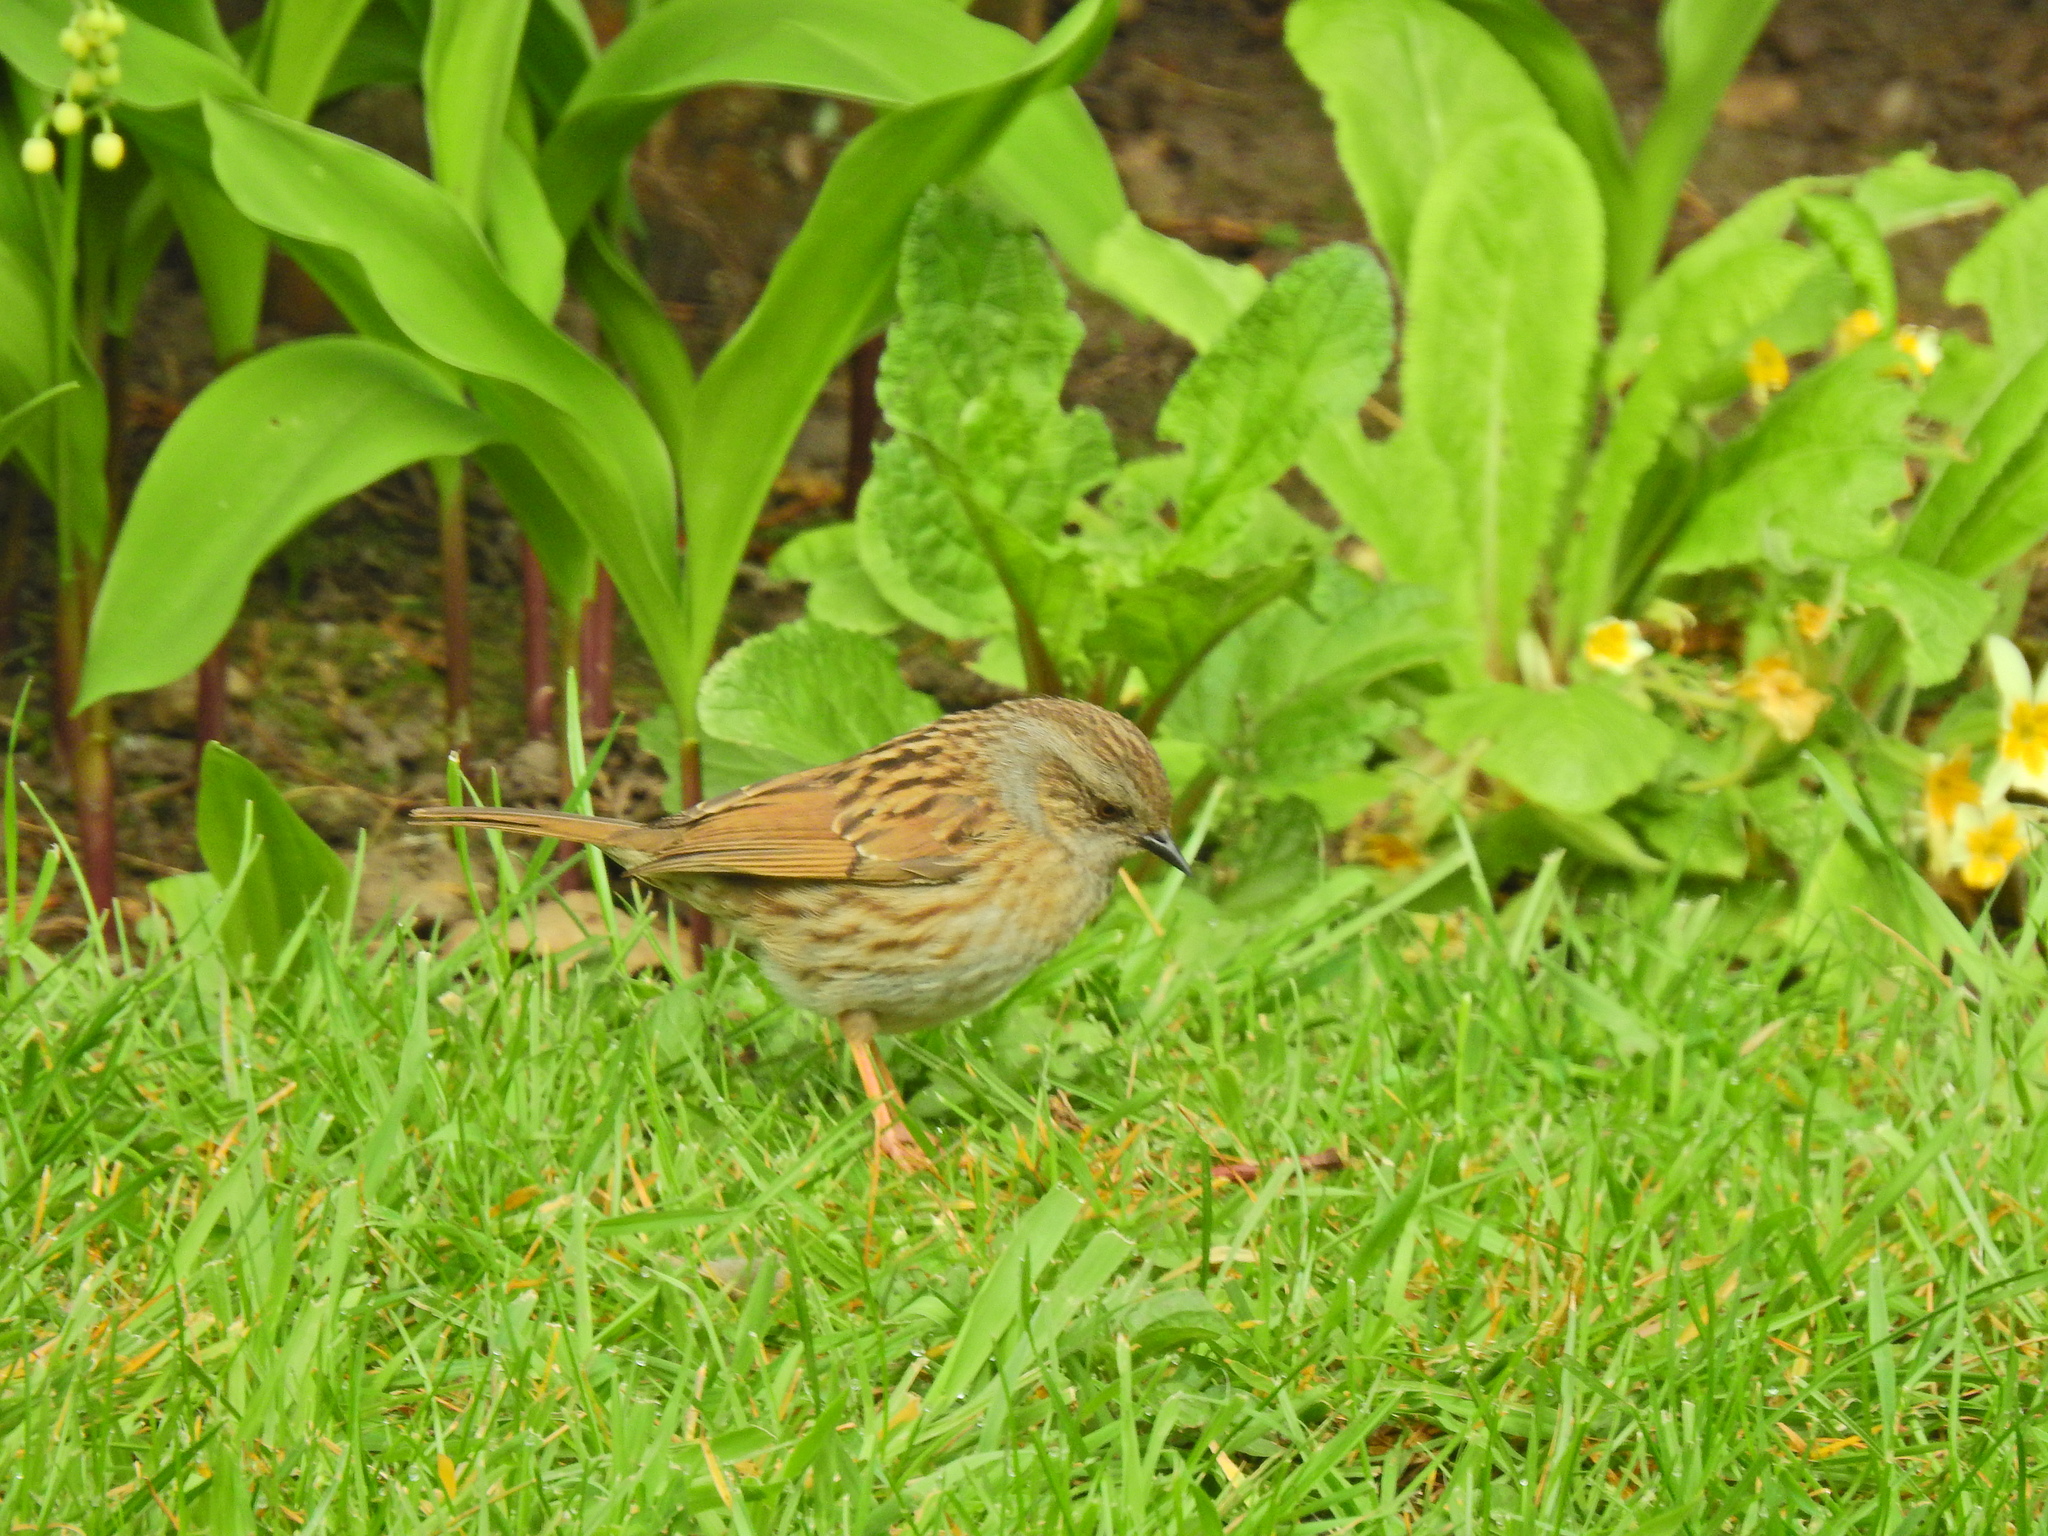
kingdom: Animalia
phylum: Chordata
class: Aves
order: Passeriformes
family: Prunellidae
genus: Prunella
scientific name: Prunella modularis
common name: Dunnock
